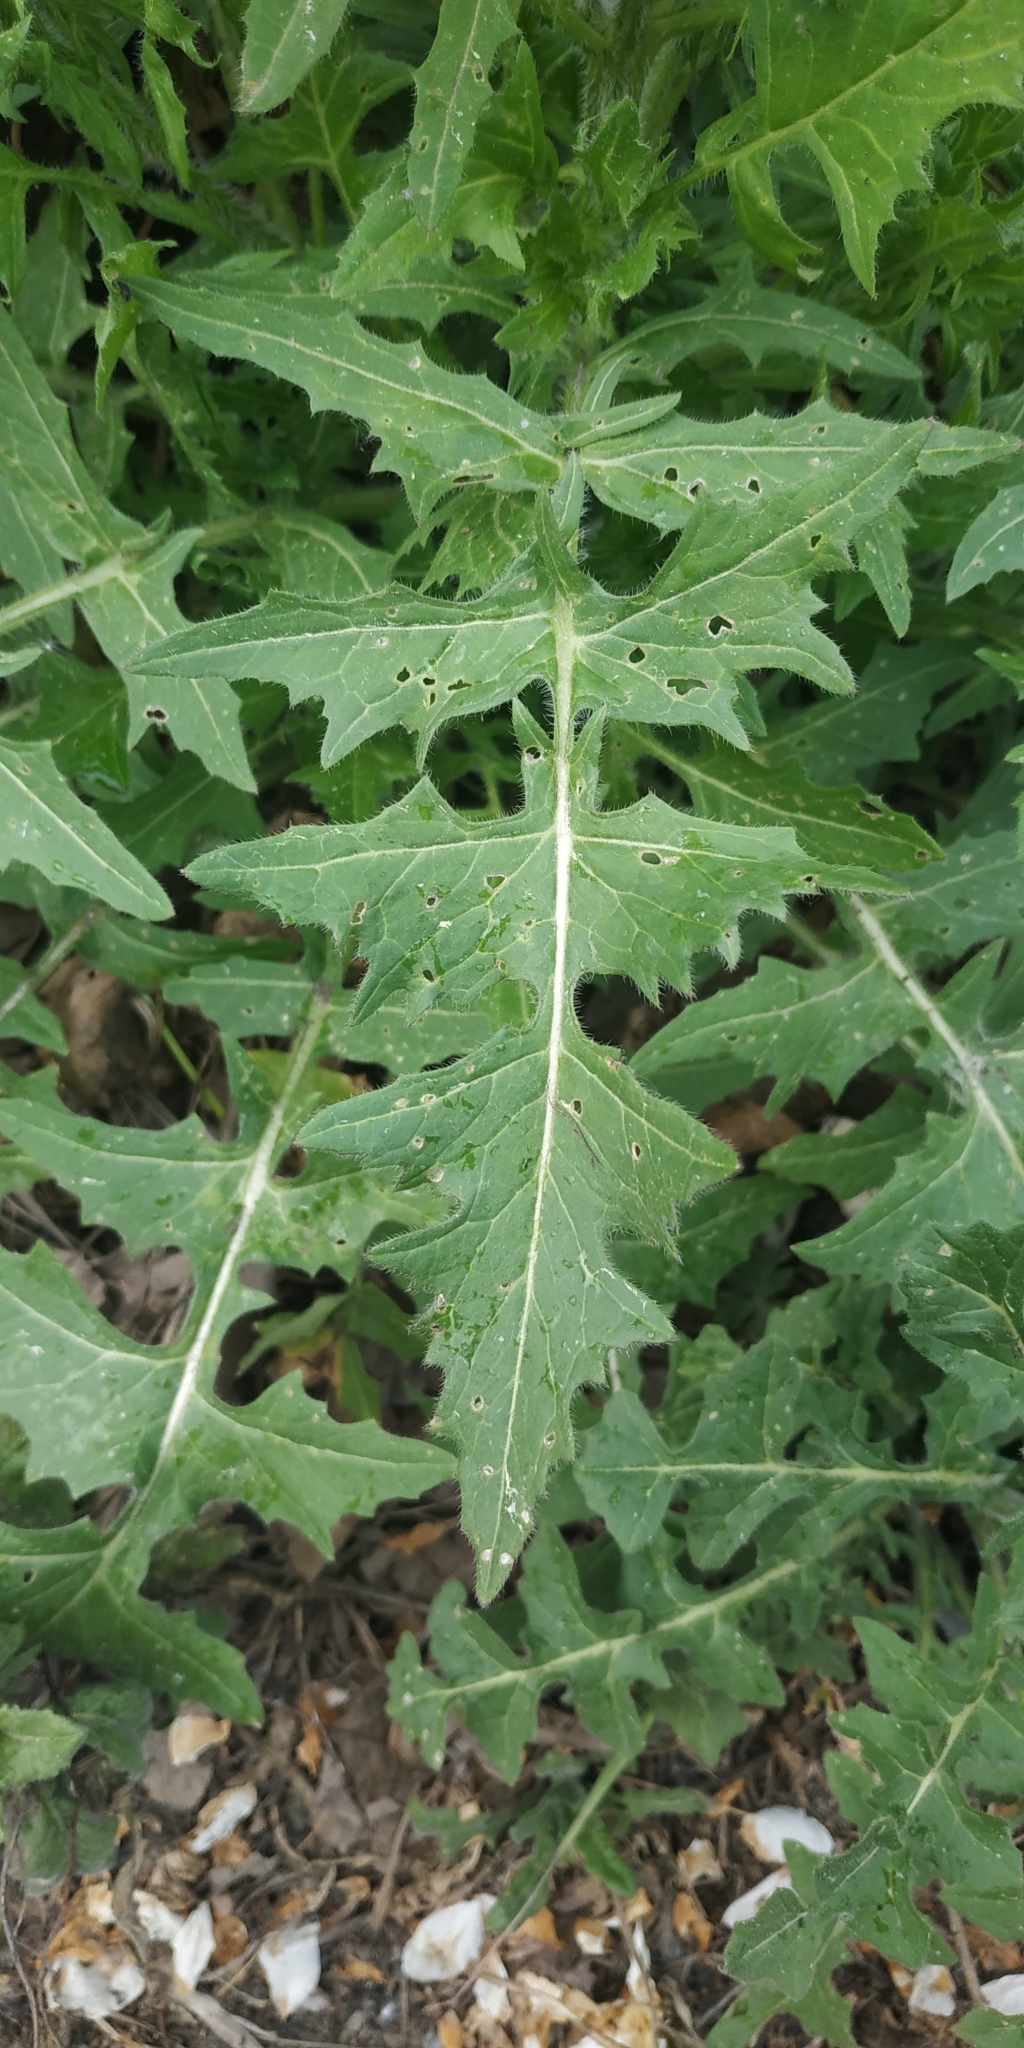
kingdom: Plantae
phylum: Tracheophyta
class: Magnoliopsida
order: Brassicales
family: Brassicaceae
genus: Sisymbrium
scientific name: Sisymbrium loeselii
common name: False london-rocket
